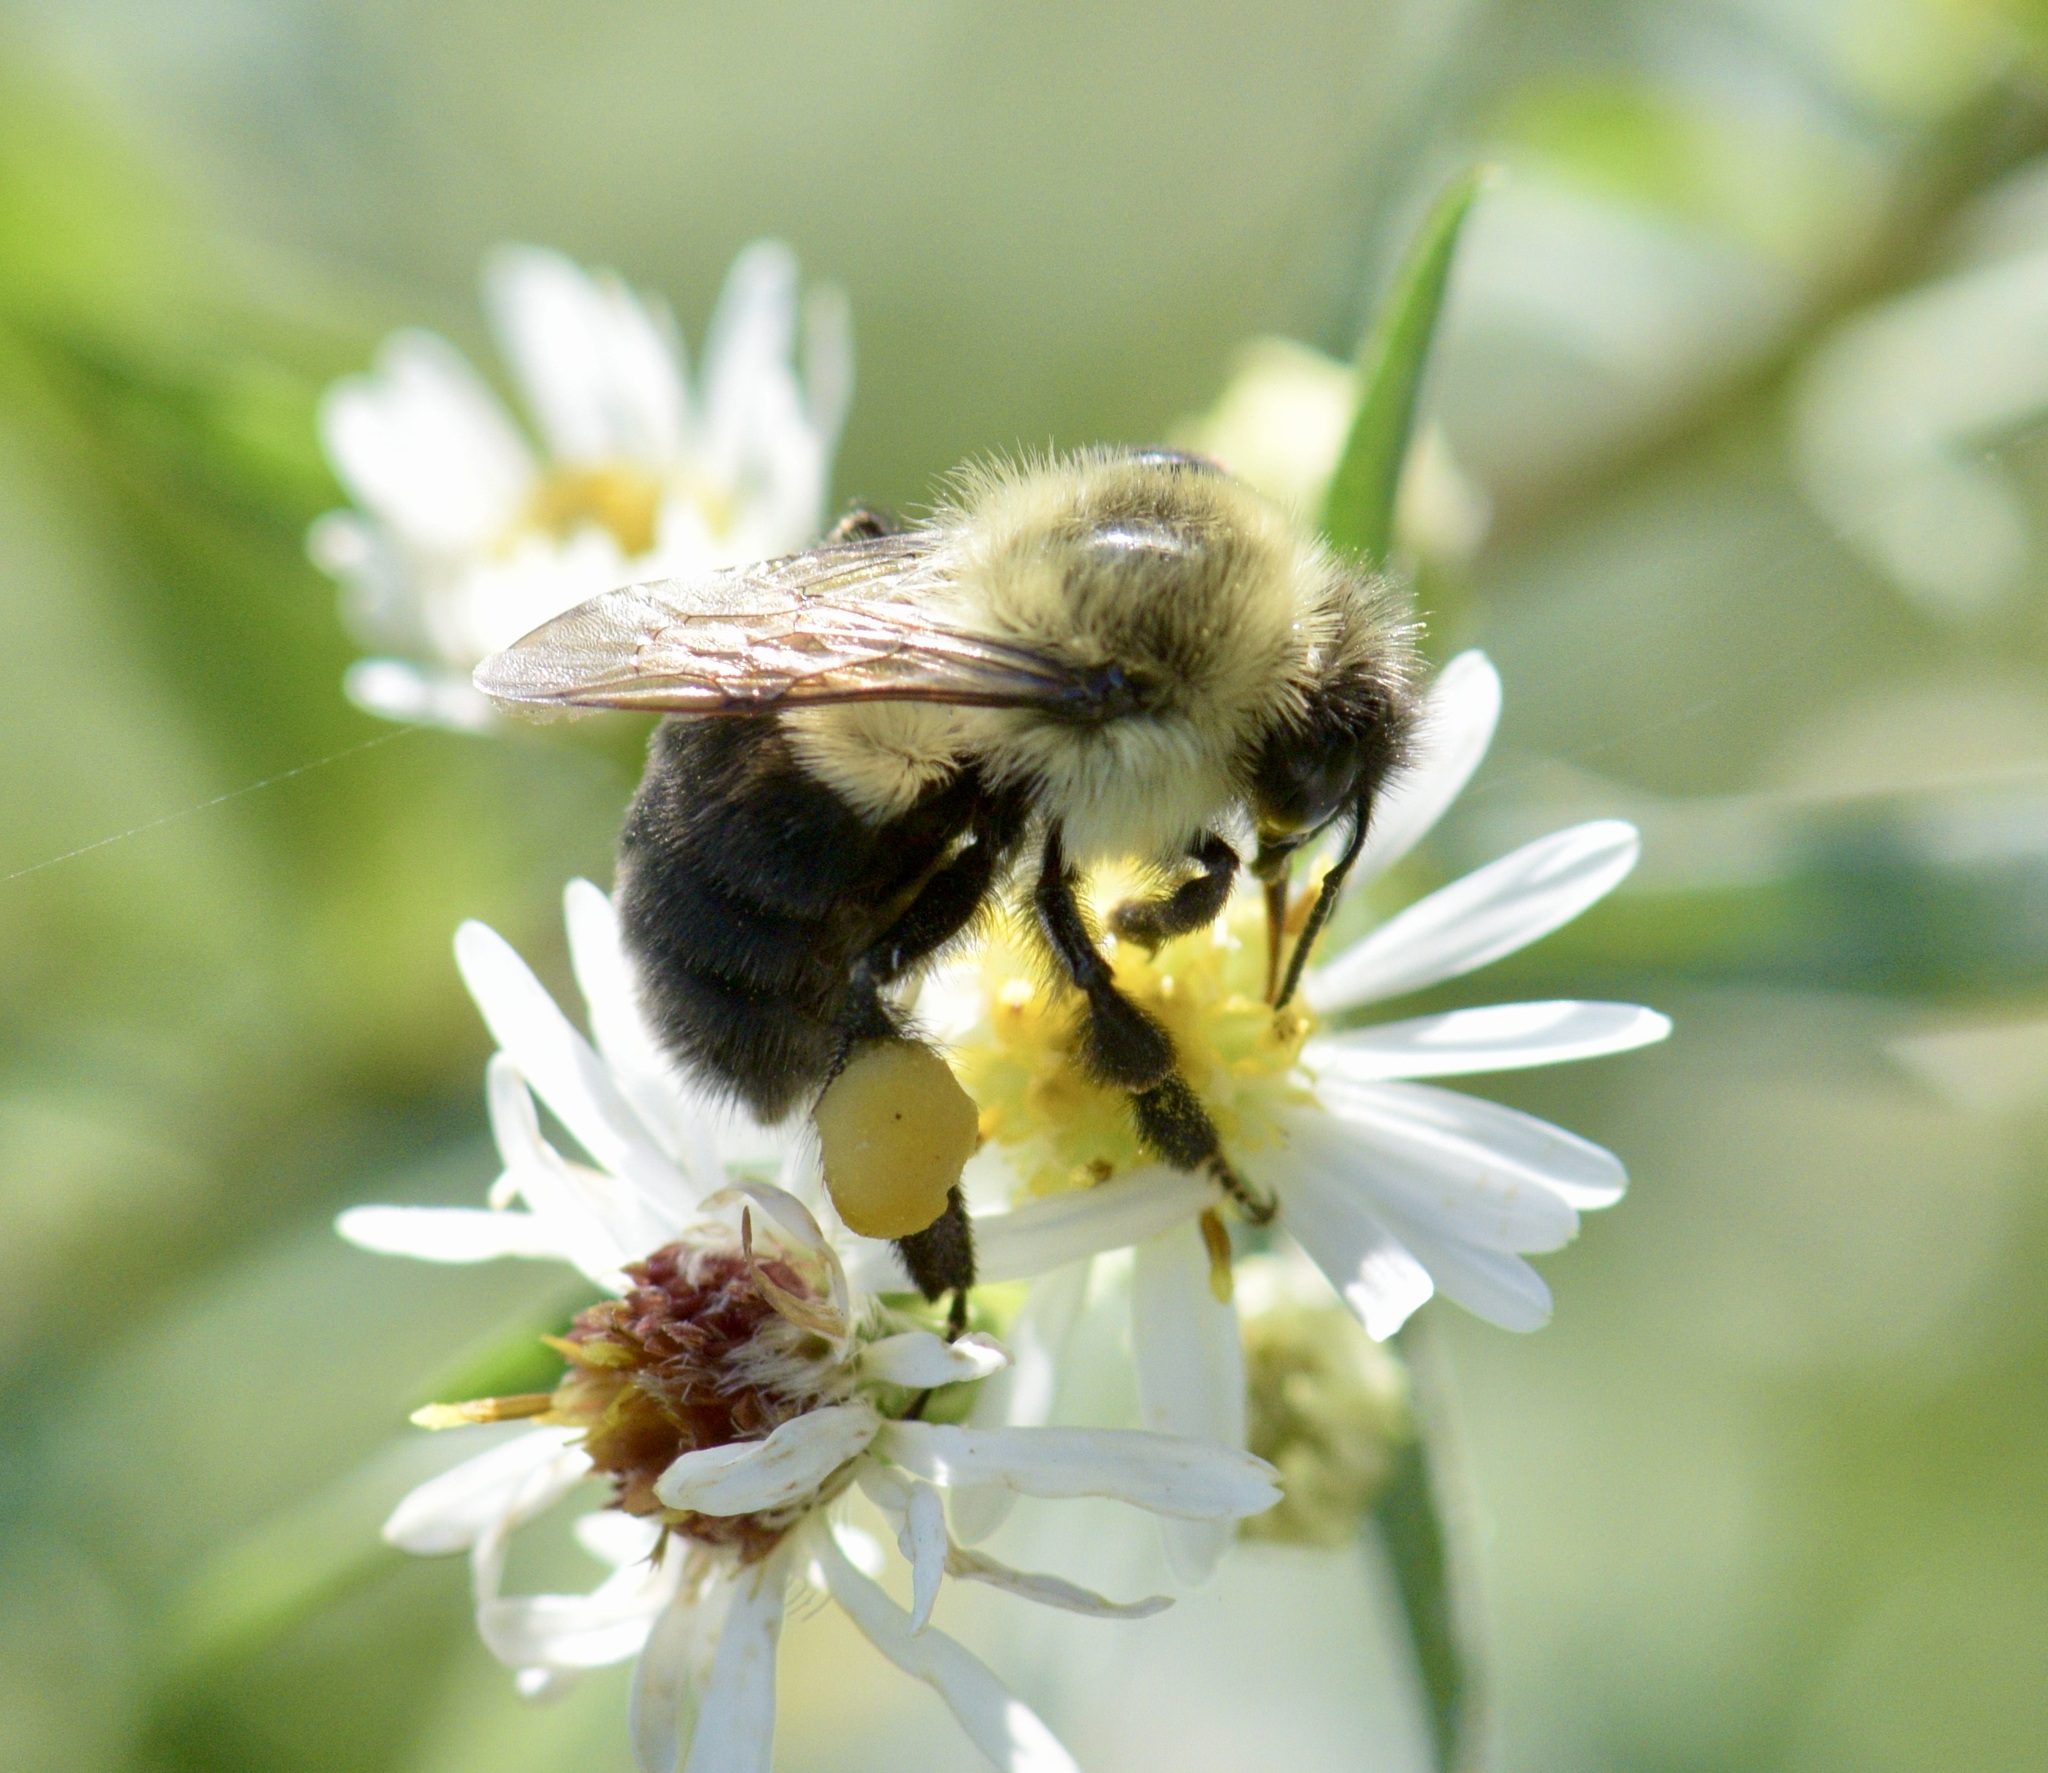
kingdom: Animalia
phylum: Arthropoda
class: Insecta
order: Hymenoptera
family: Apidae
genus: Bombus
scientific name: Bombus impatiens
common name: Common eastern bumble bee
